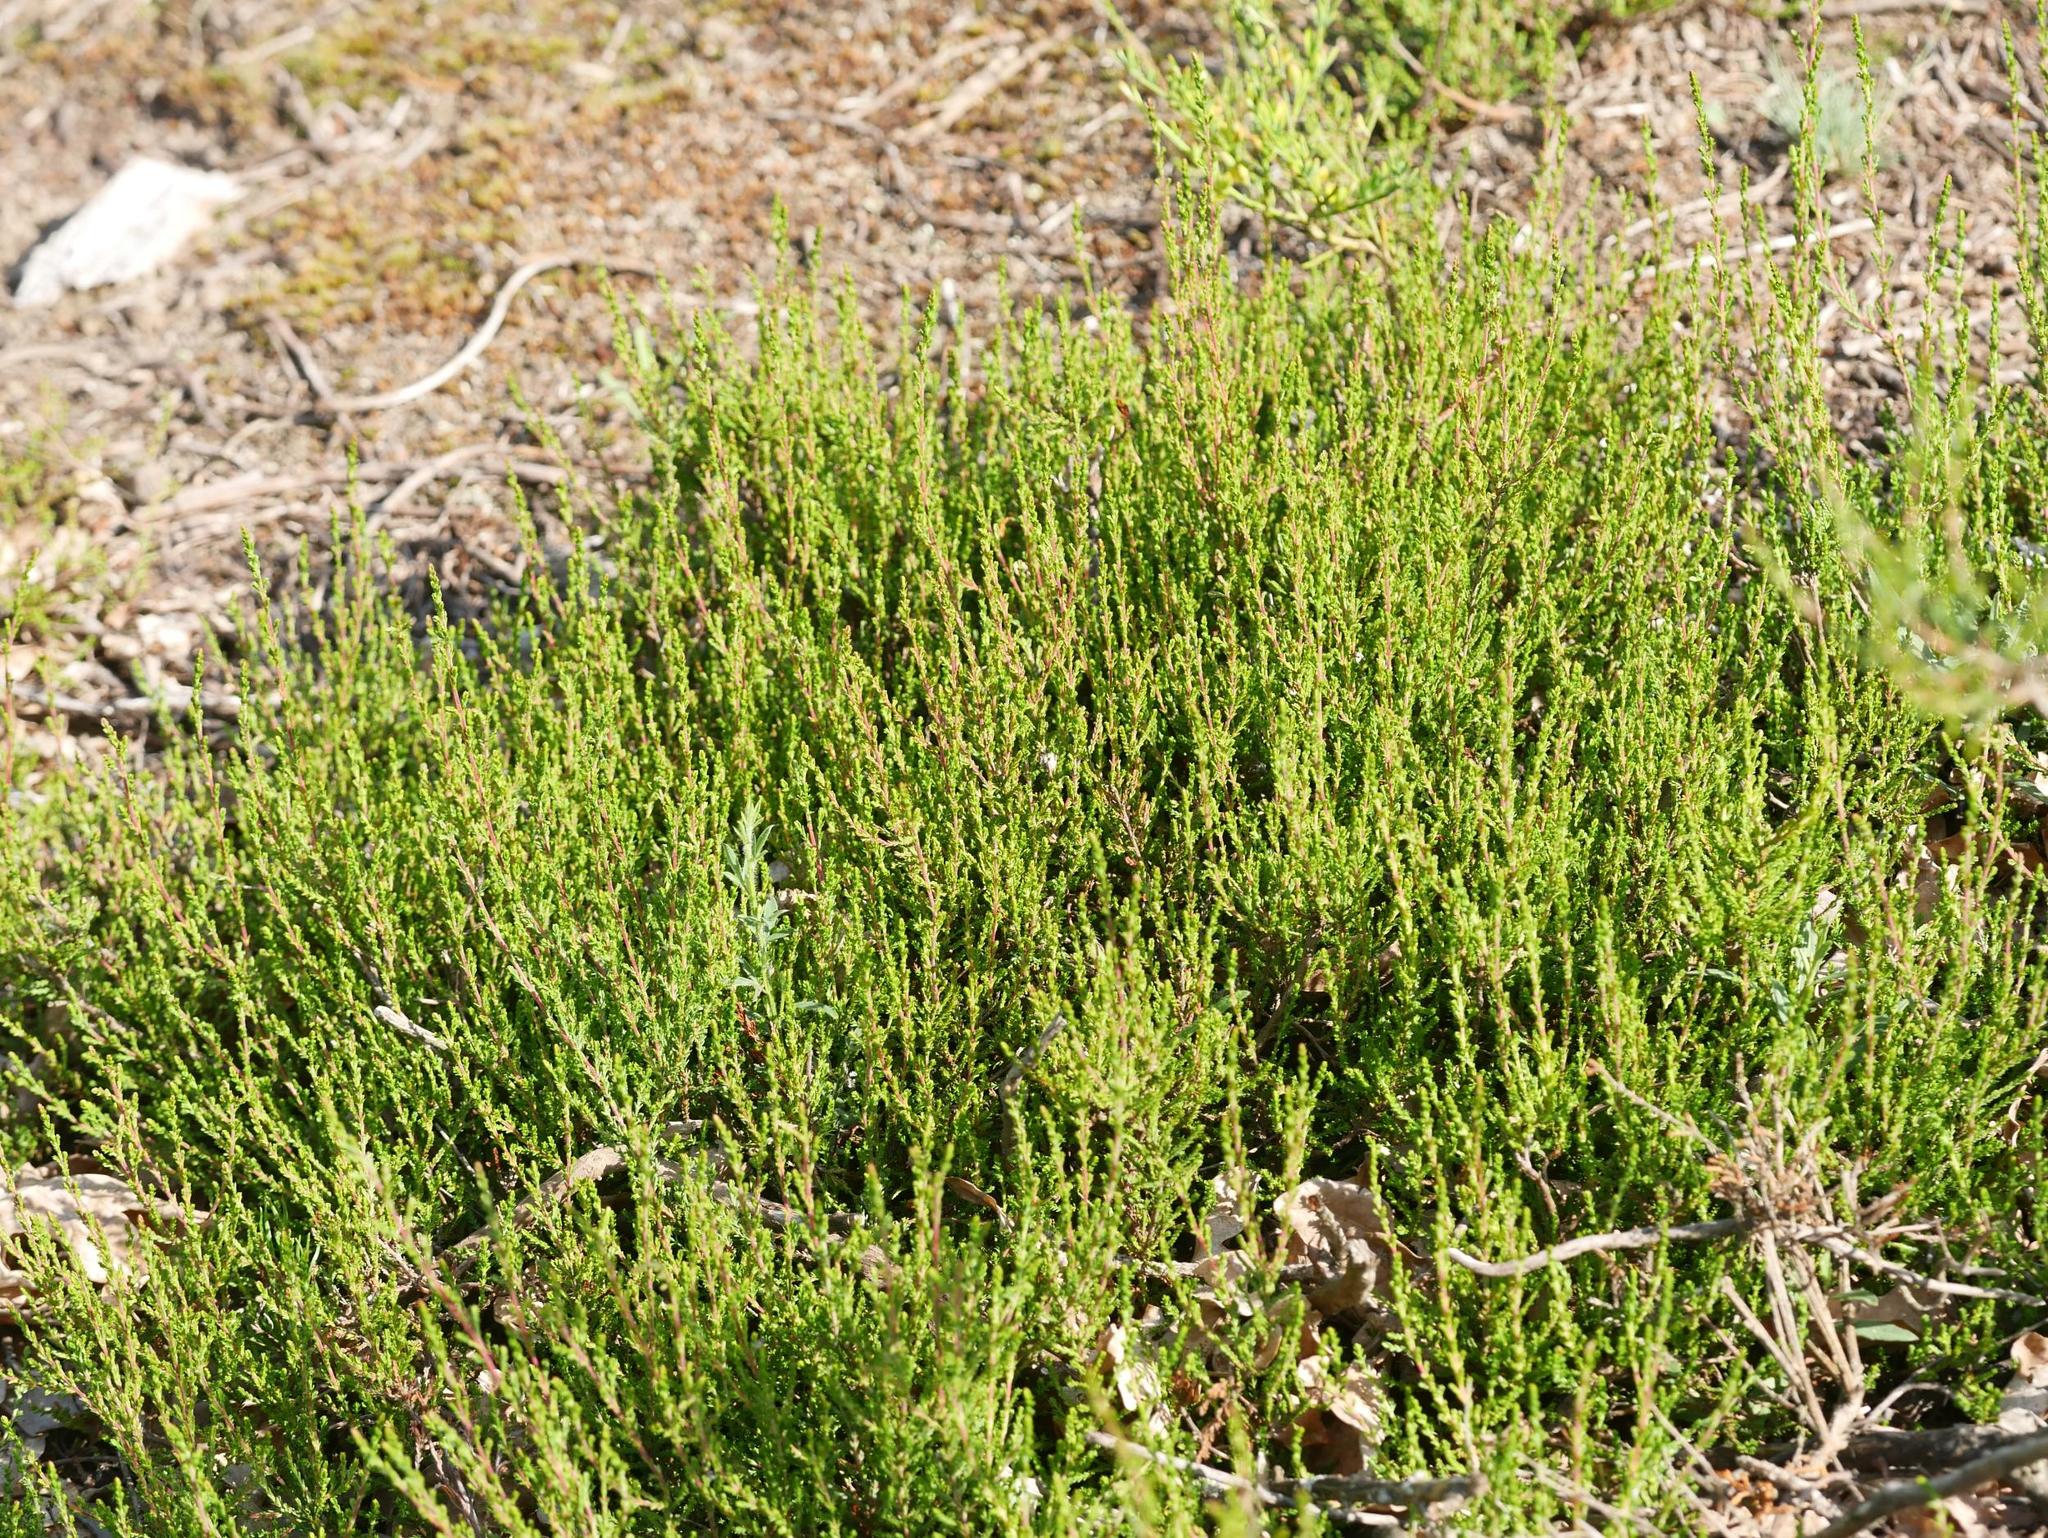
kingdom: Plantae
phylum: Tracheophyta
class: Magnoliopsida
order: Ericales
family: Ericaceae
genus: Calluna
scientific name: Calluna vulgaris
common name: Heather
